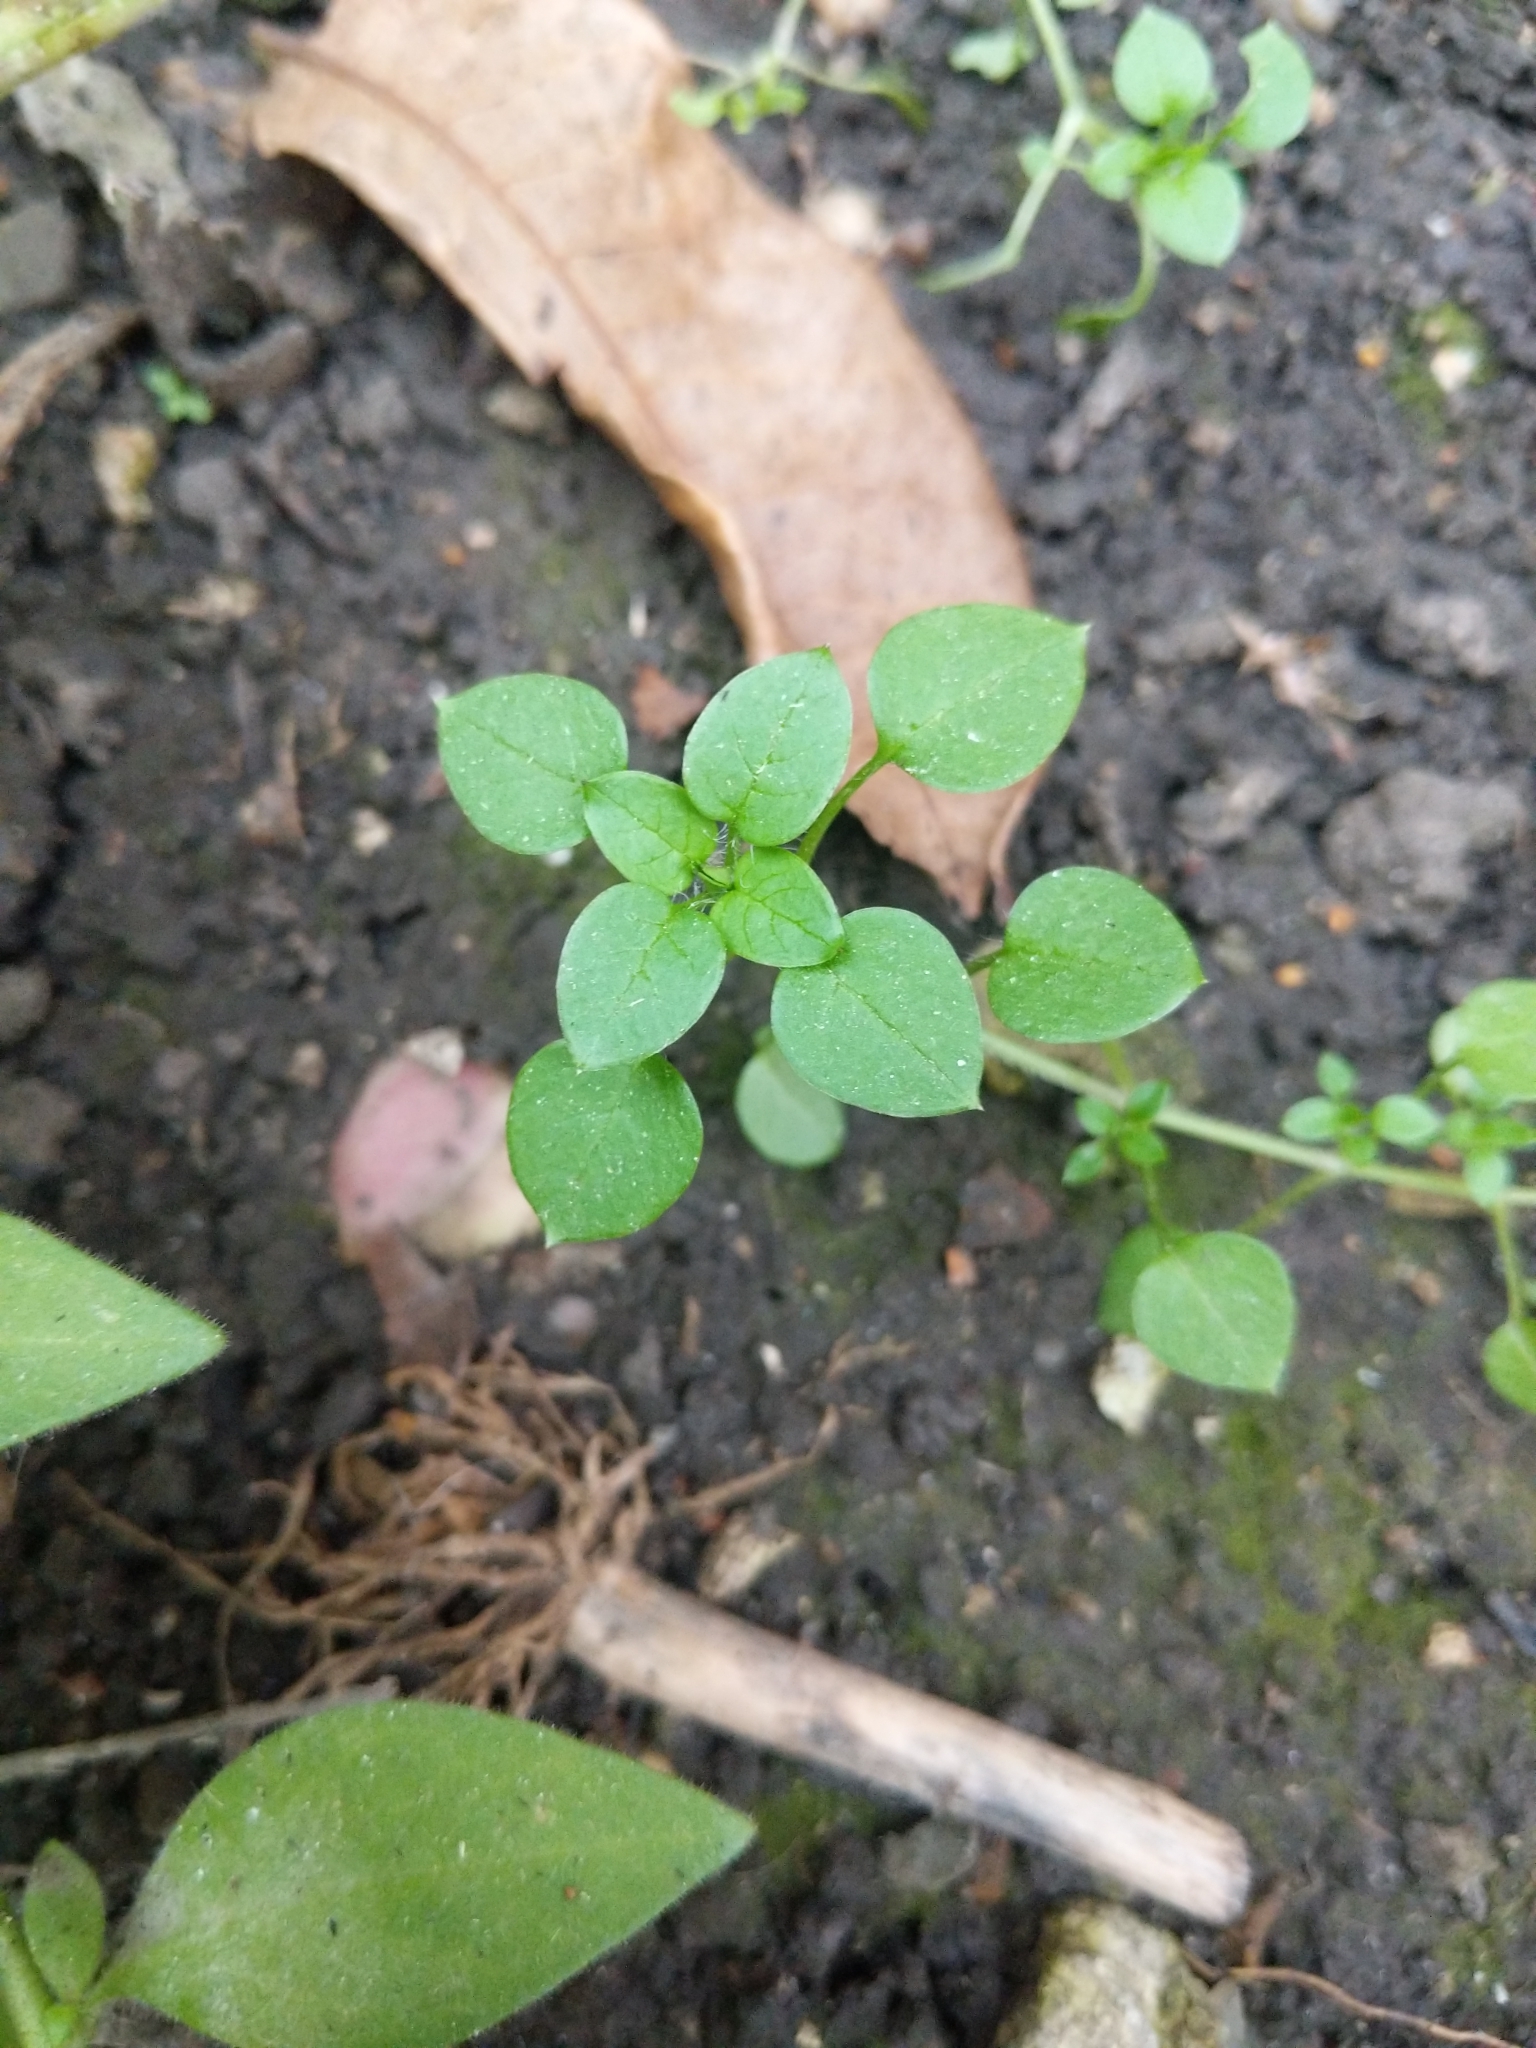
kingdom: Plantae
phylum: Tracheophyta
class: Magnoliopsida
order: Caryophyllales
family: Caryophyllaceae
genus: Stellaria
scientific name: Stellaria media
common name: Common chickweed
